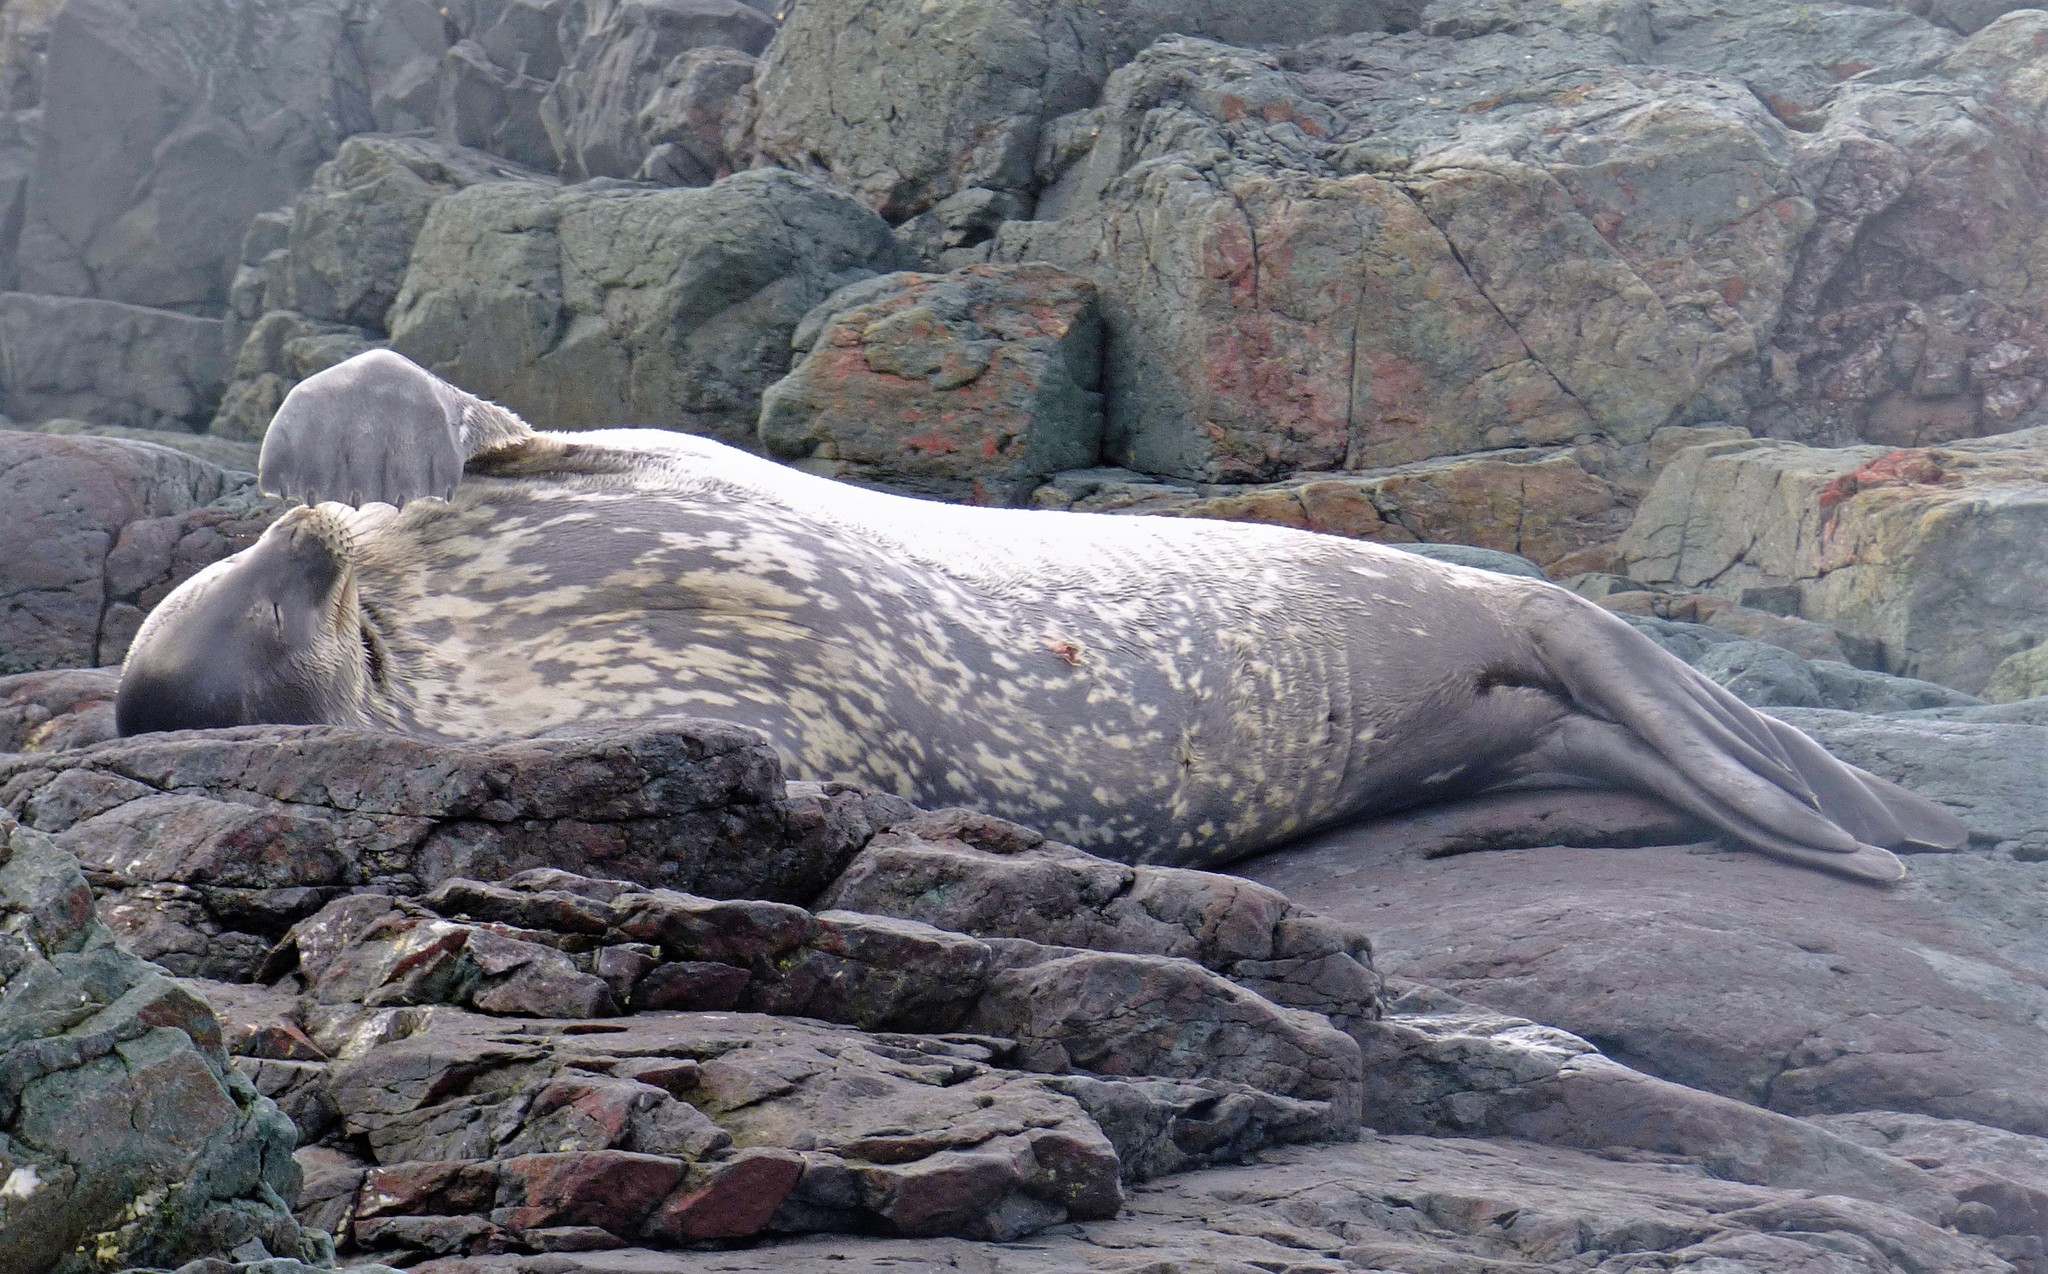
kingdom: Animalia
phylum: Chordata
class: Mammalia
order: Carnivora
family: Phocidae
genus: Leptonychotes
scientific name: Leptonychotes weddellii
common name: Weddell seal
